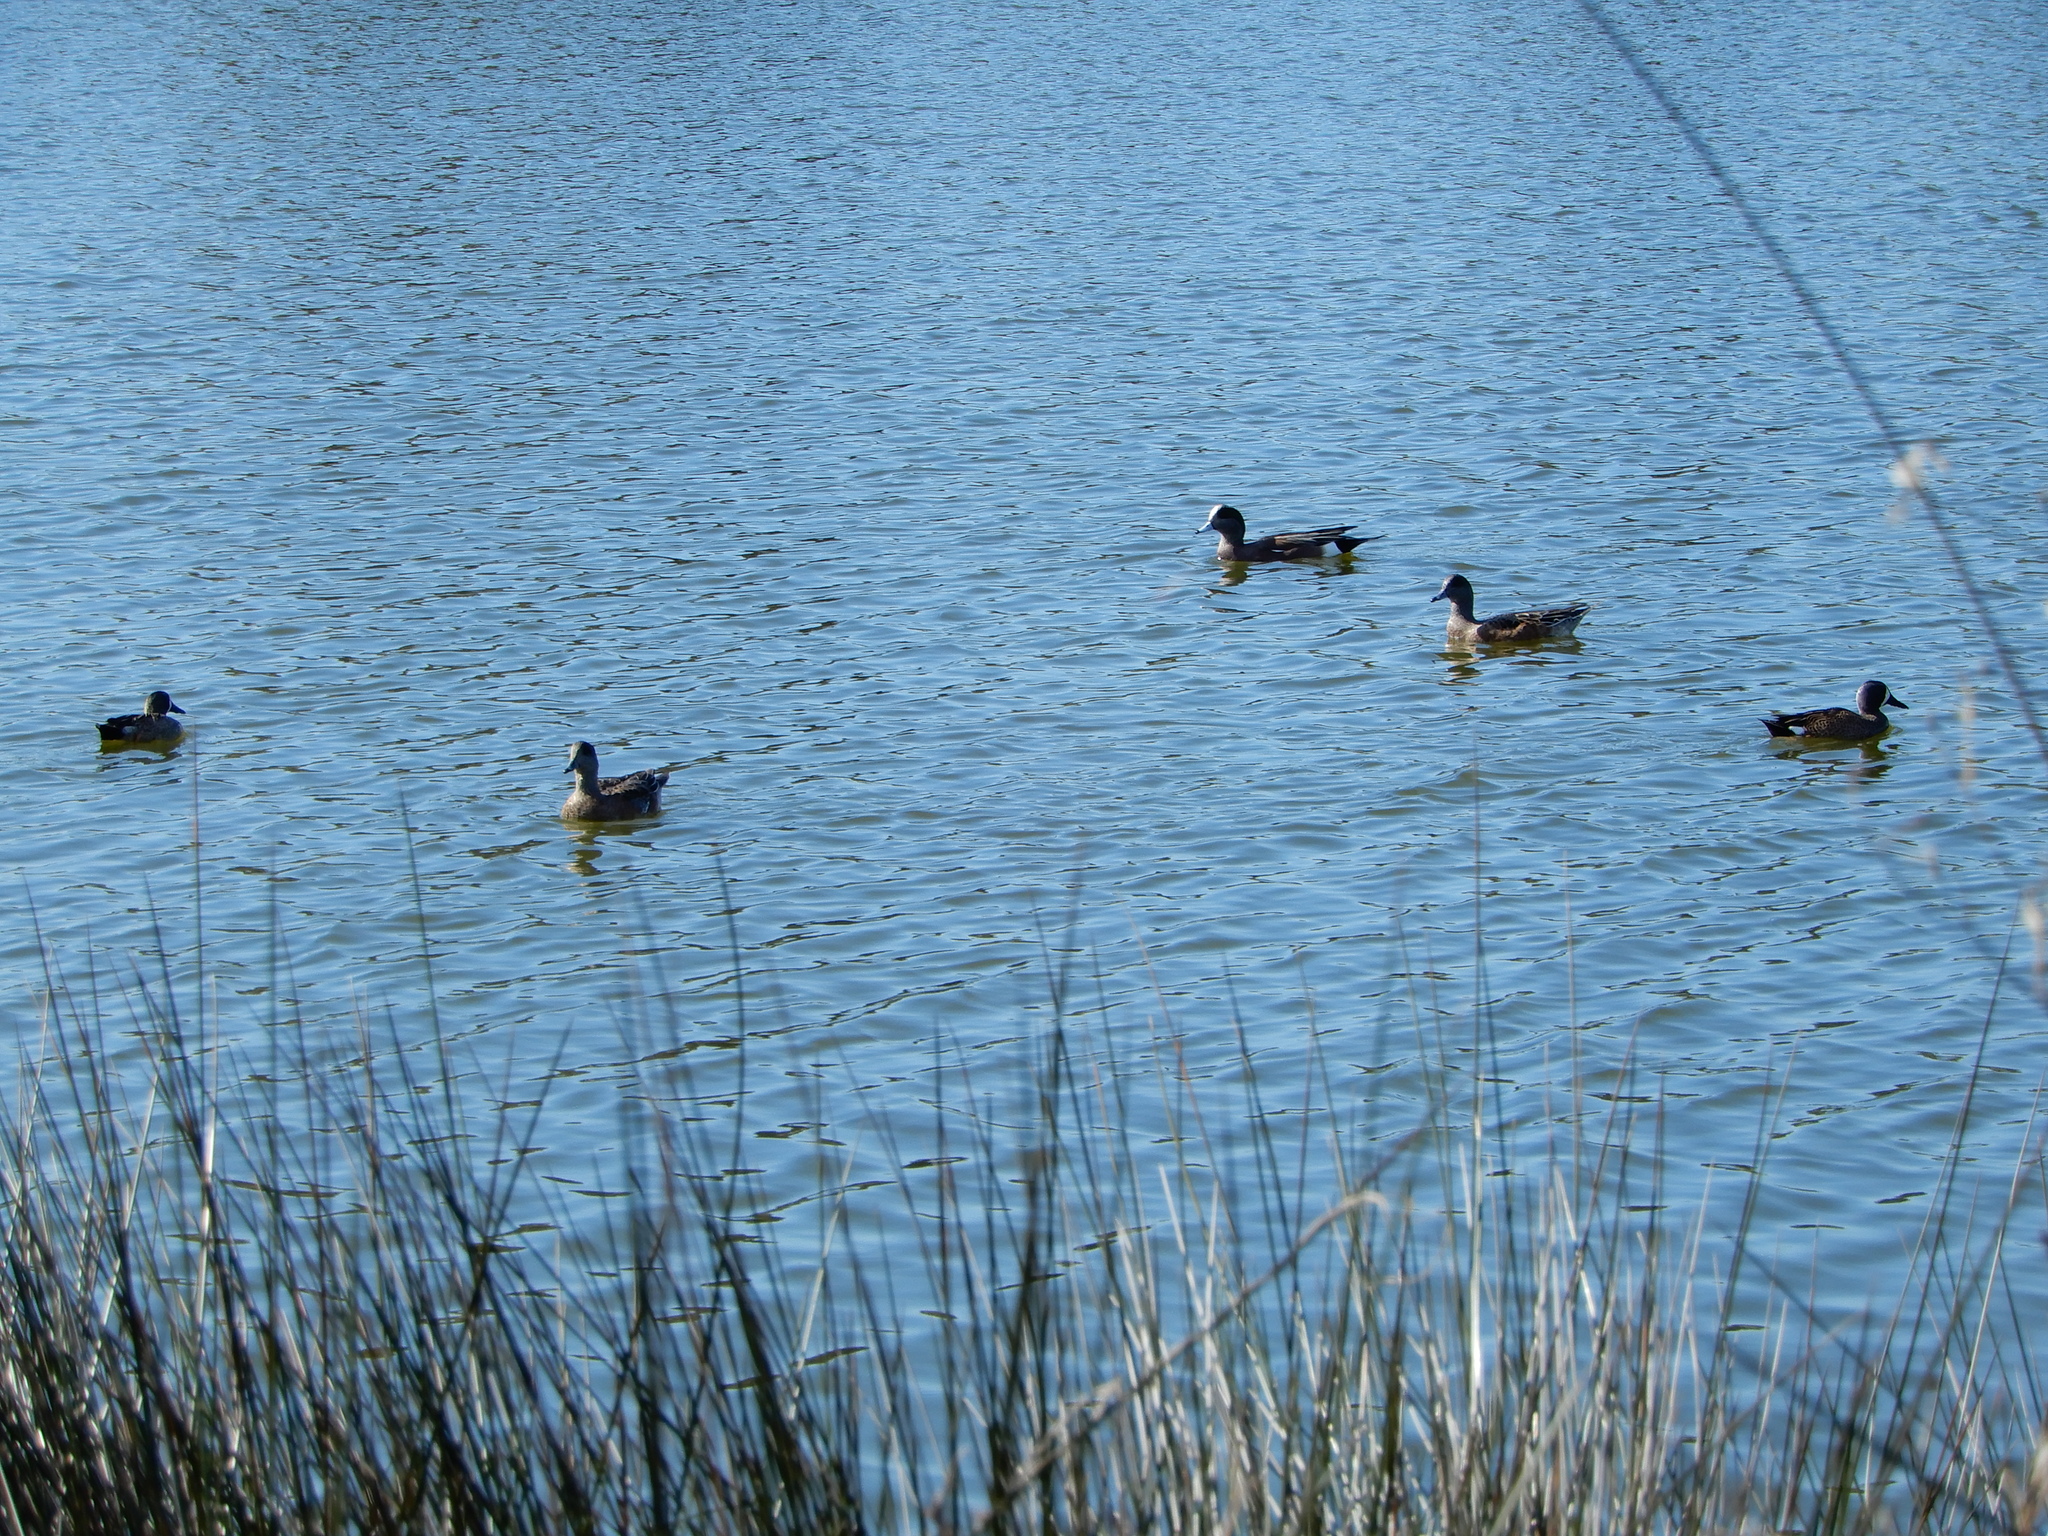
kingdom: Animalia
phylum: Chordata
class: Aves
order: Anseriformes
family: Anatidae
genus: Spatula
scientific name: Spatula discors
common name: Blue-winged teal
